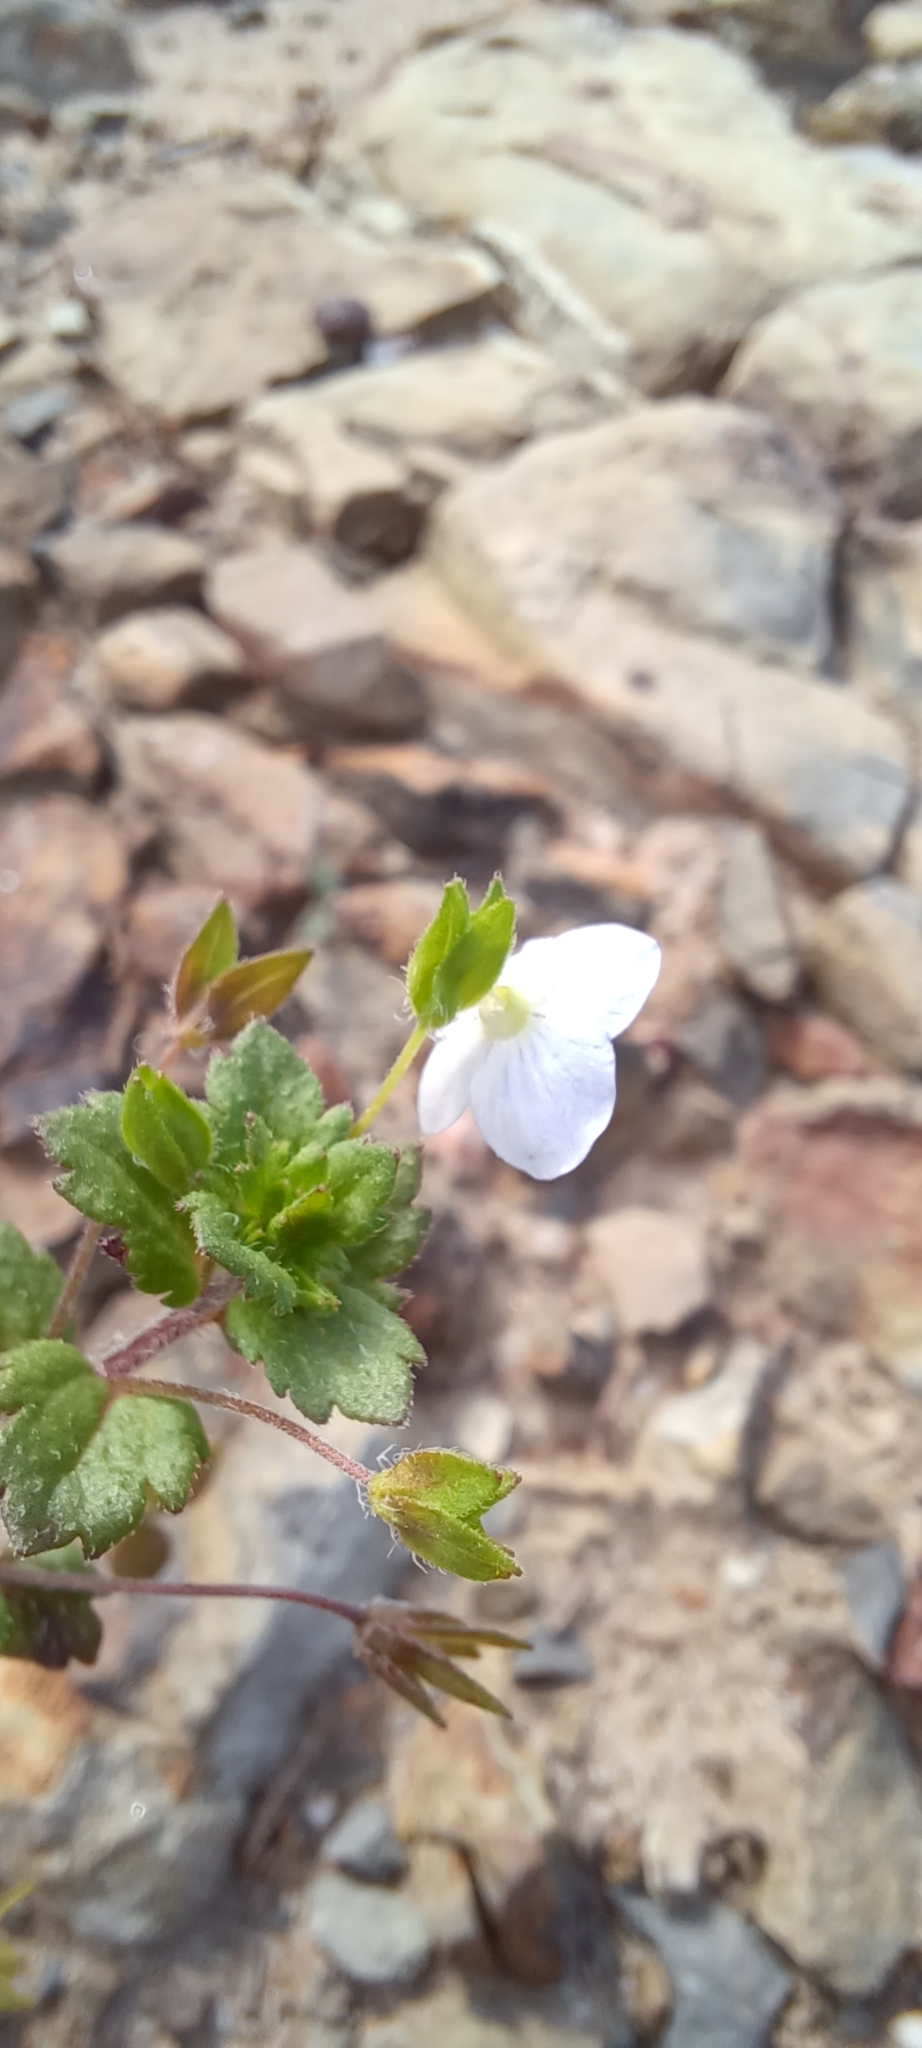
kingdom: Plantae
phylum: Tracheophyta
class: Magnoliopsida
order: Lamiales
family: Plantaginaceae
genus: Veronica
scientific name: Veronica persica
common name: Common field-speedwell
